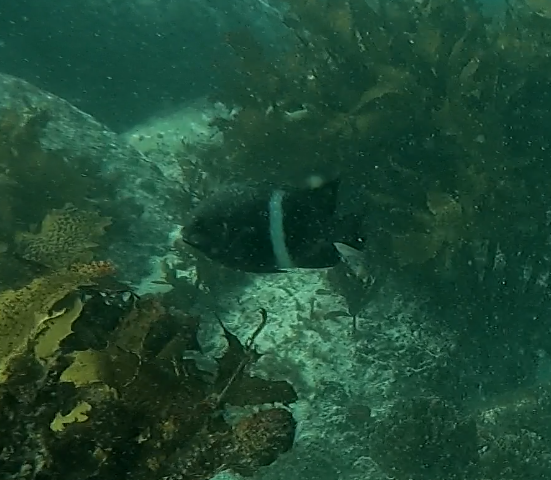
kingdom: Animalia
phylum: Chordata
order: Perciformes
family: Pomacentridae
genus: Parma
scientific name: Parma unifasciata
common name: Girdled parma
